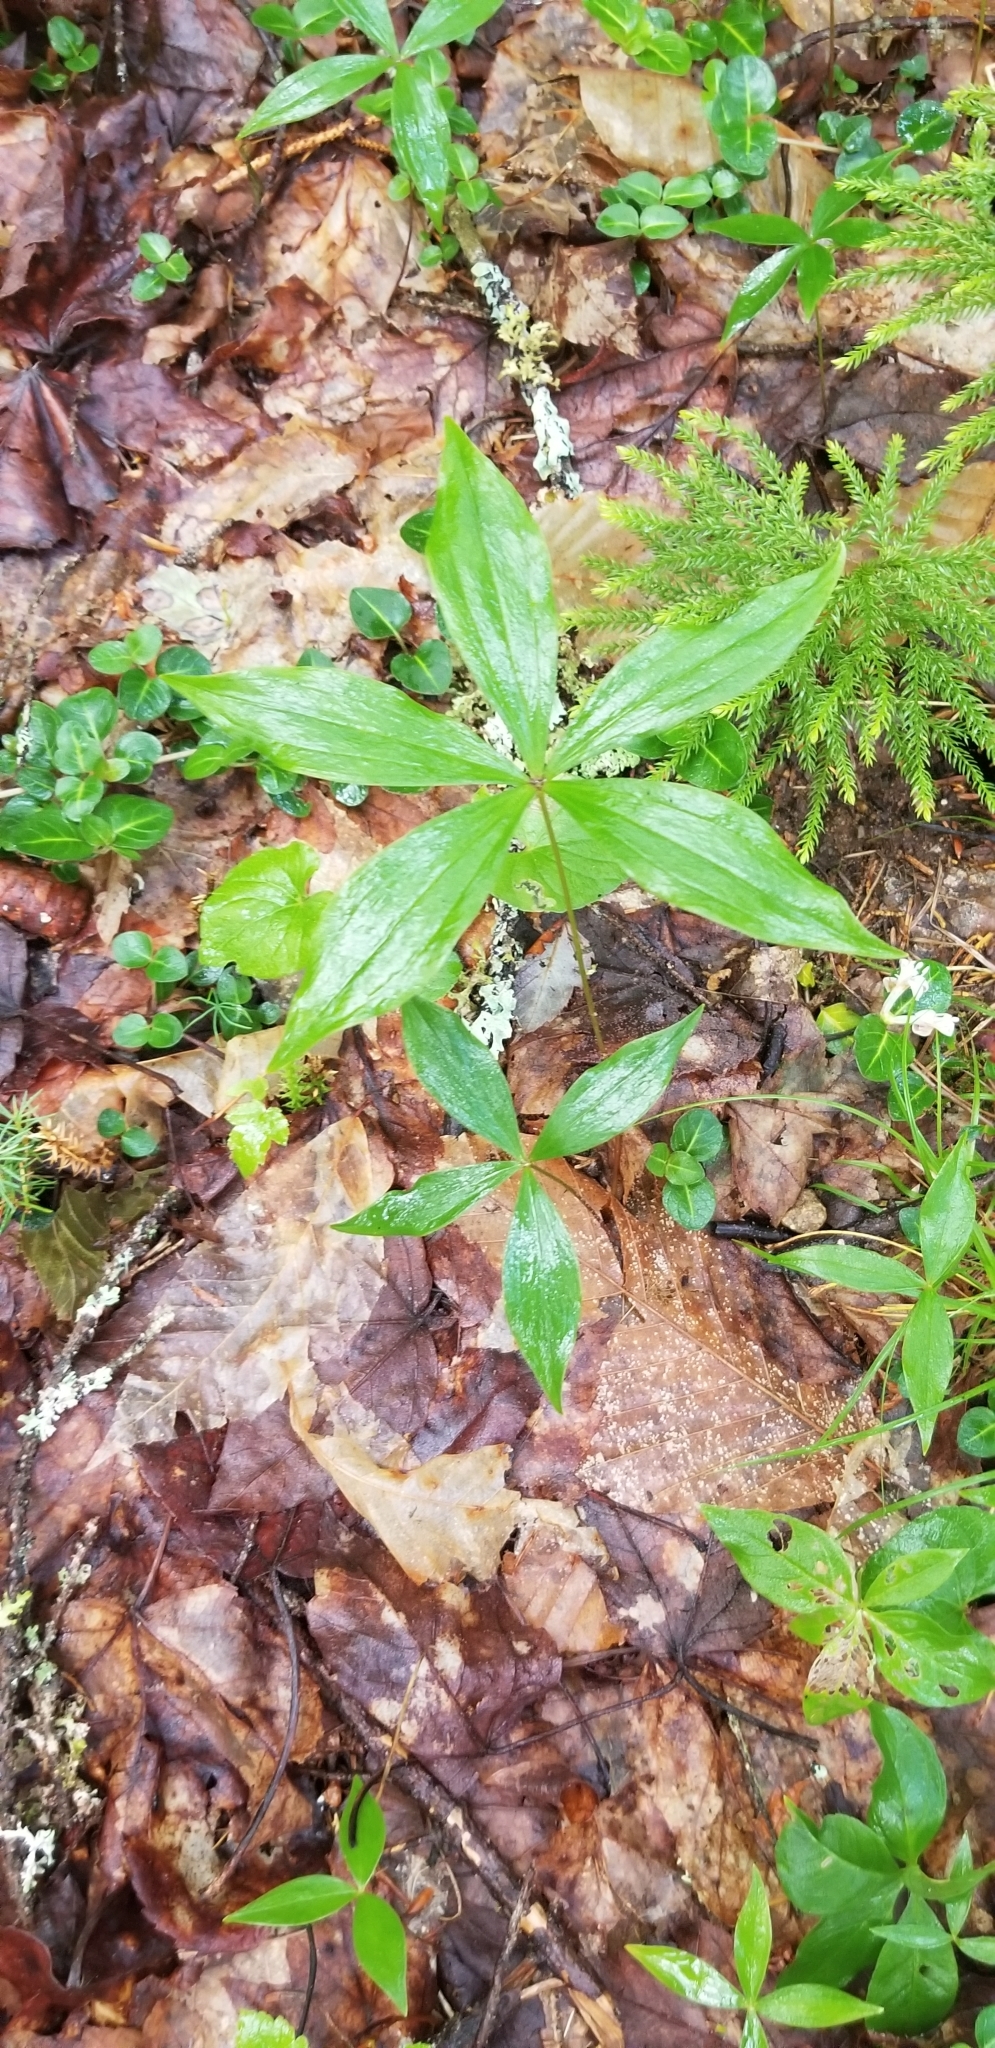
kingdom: Plantae
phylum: Tracheophyta
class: Magnoliopsida
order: Ericales
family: Primulaceae
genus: Lysimachia
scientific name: Lysimachia borealis
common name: American starflower
